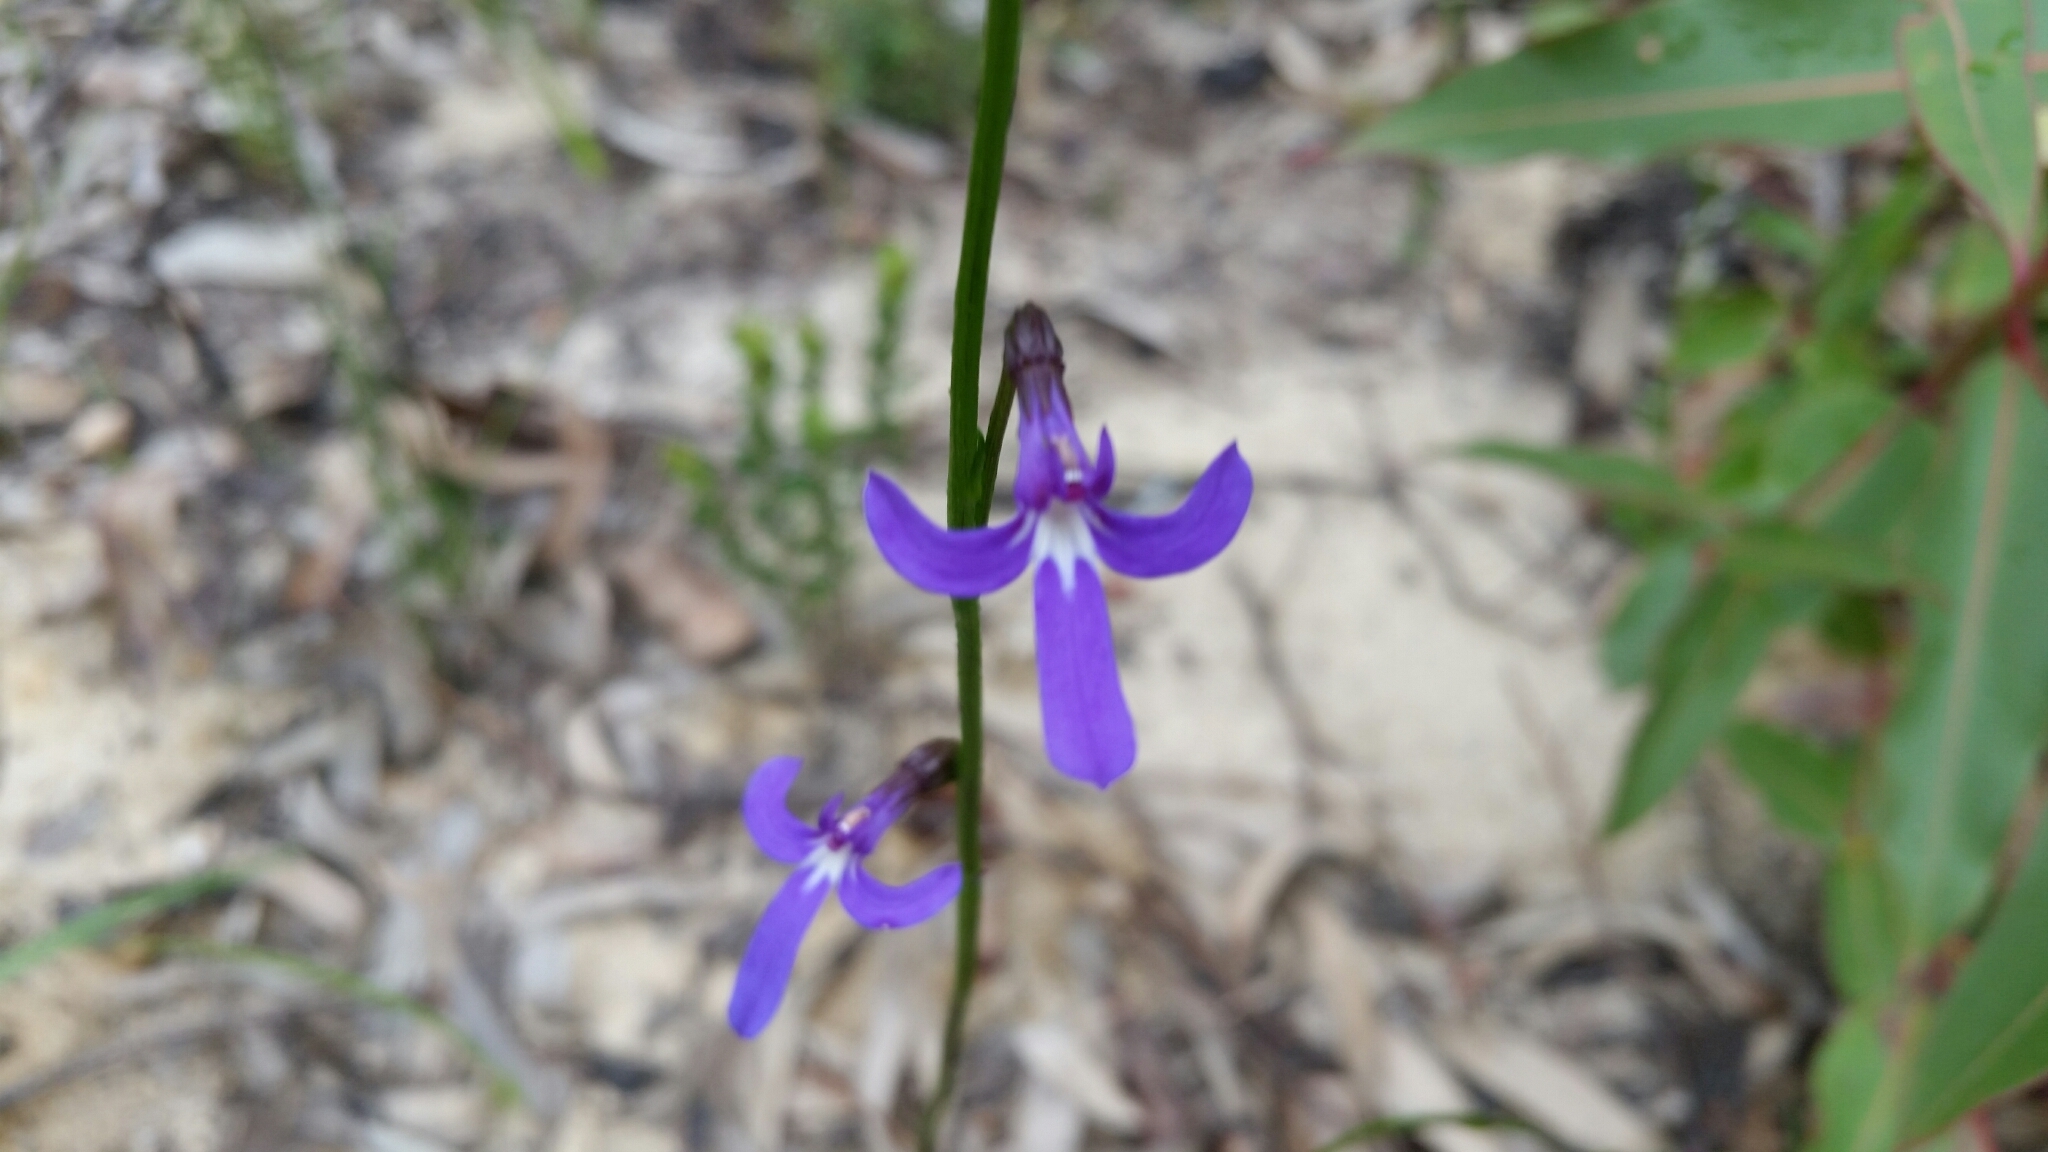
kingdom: Plantae
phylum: Tracheophyta
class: Magnoliopsida
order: Asterales
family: Campanulaceae
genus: Lobelia
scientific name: Lobelia dentata
